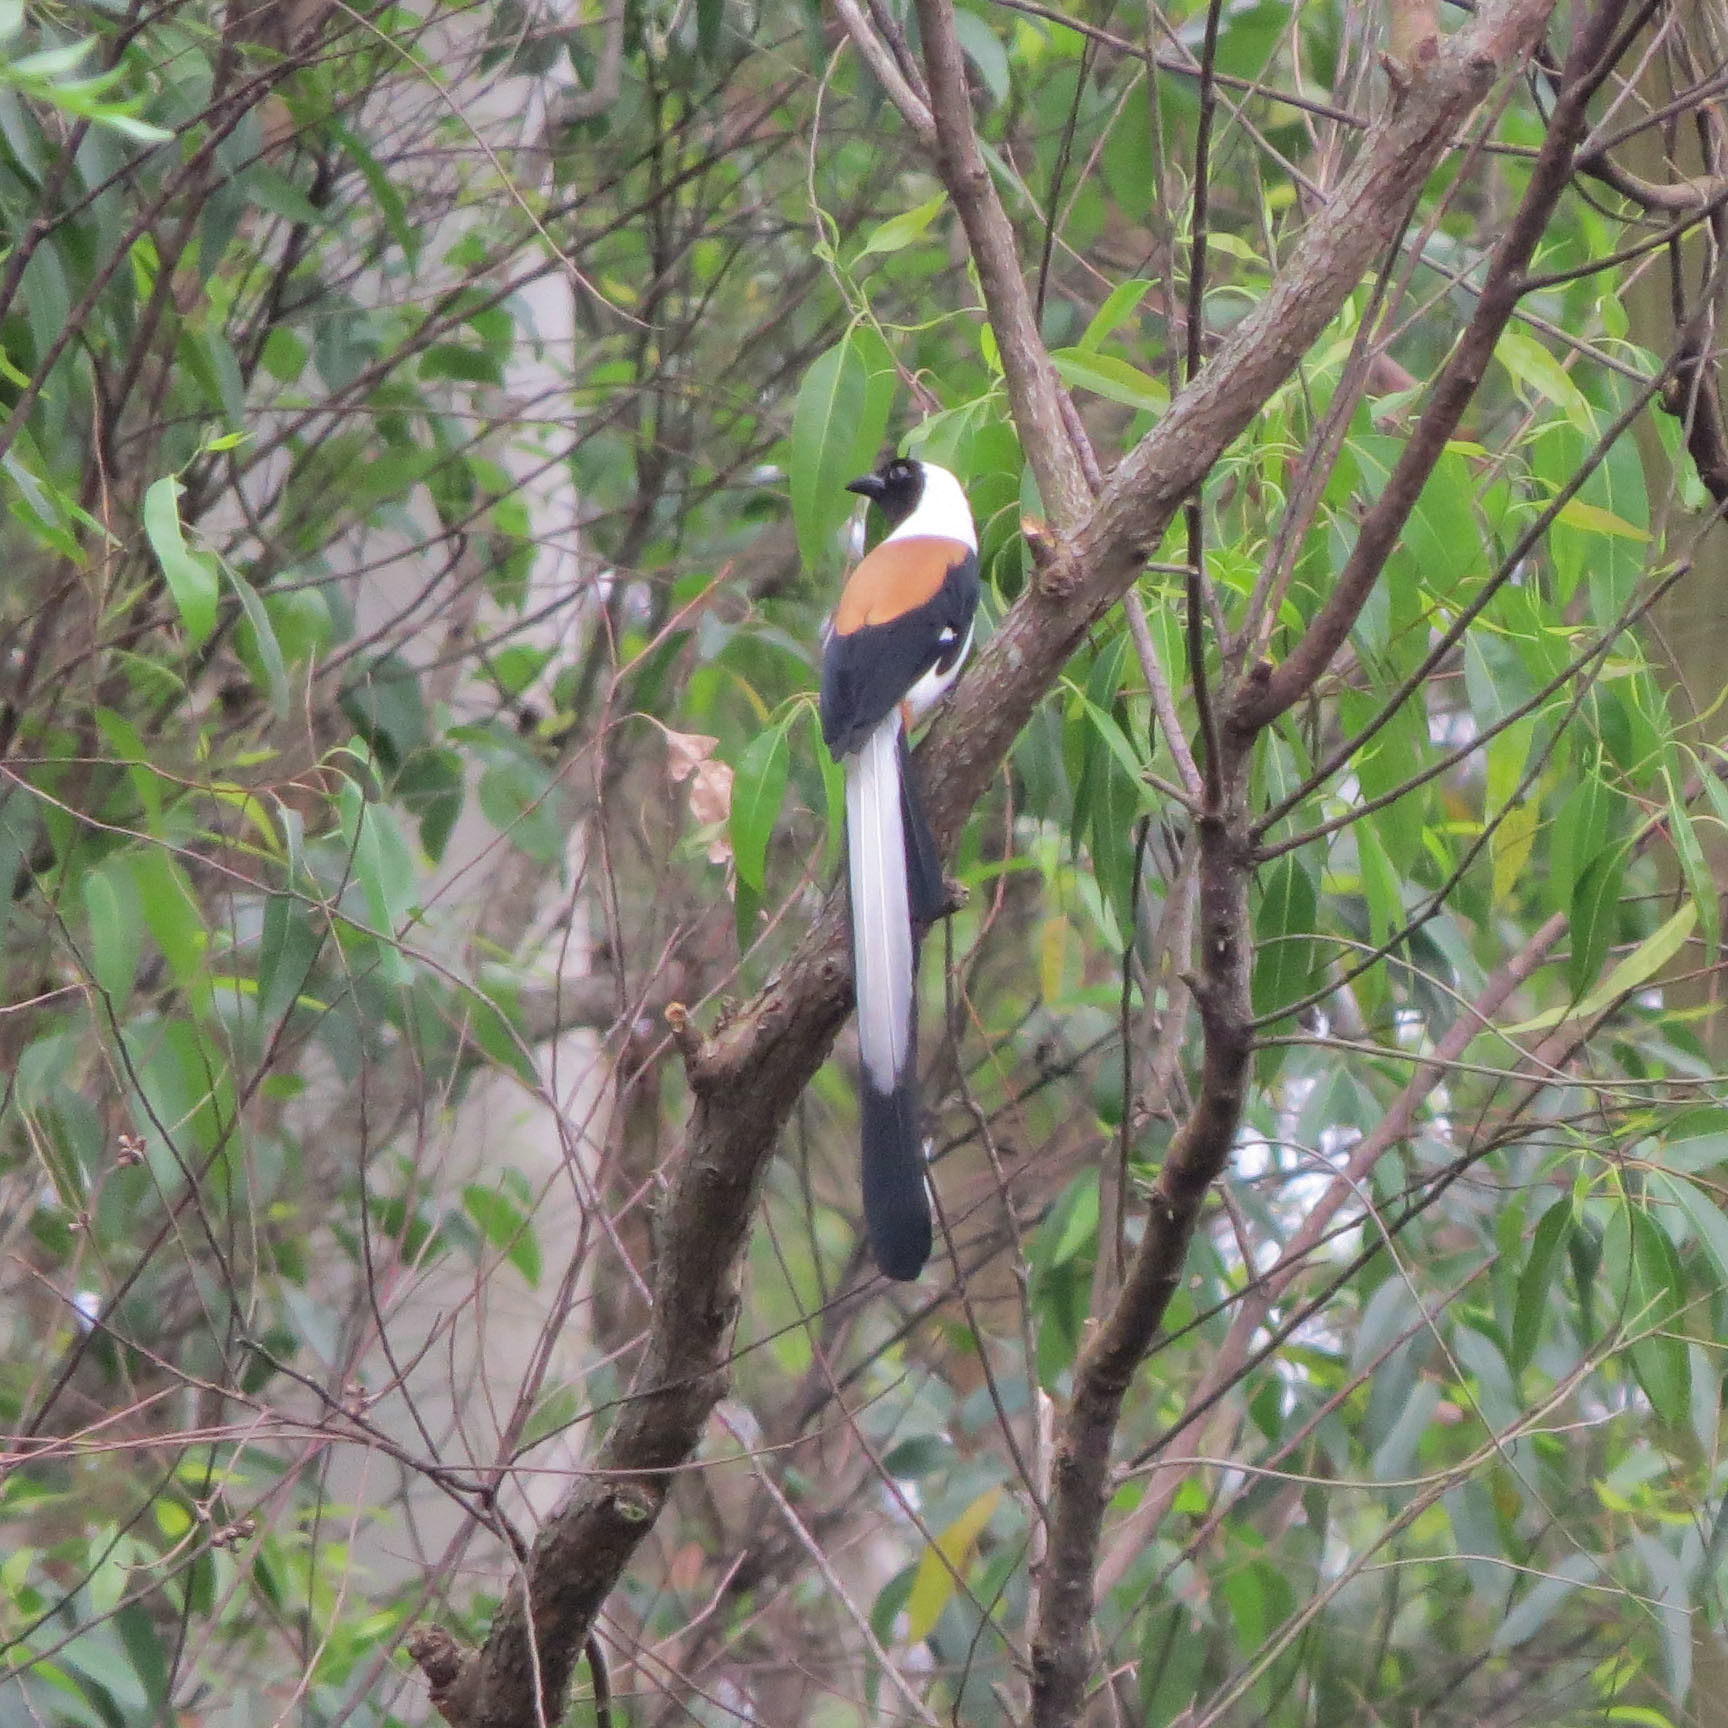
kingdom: Animalia
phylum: Chordata
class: Aves
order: Passeriformes
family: Corvidae
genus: Dendrocitta
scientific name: Dendrocitta leucogastra
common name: White-bellied treepie
